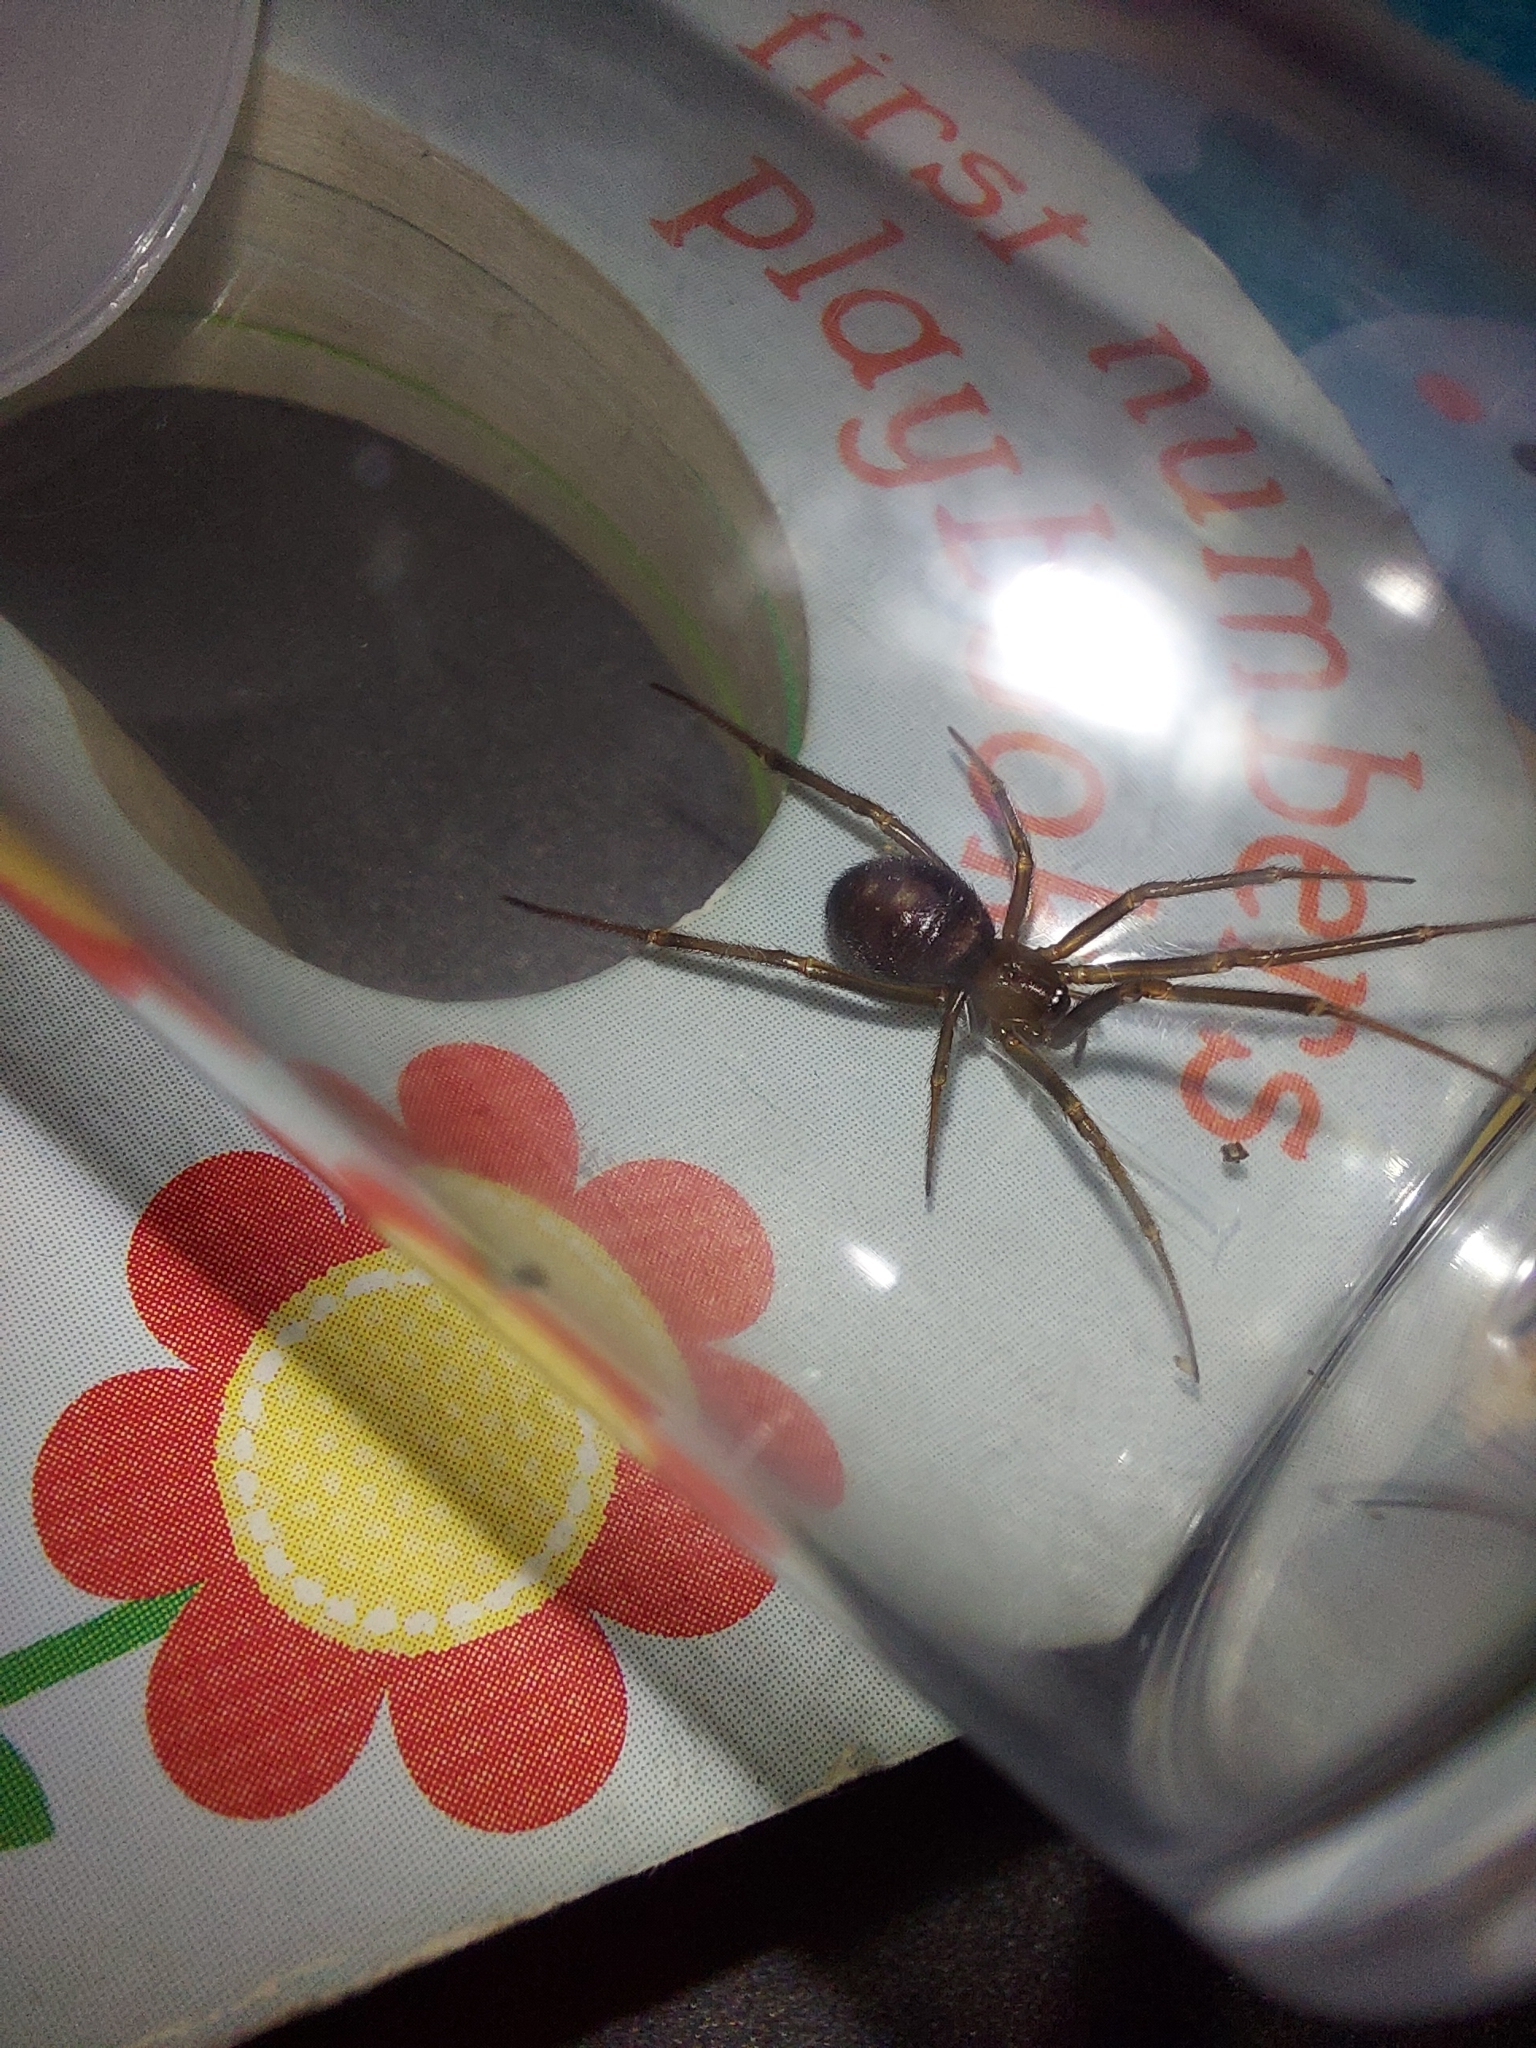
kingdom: Animalia
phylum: Arthropoda
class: Arachnida
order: Araneae
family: Theridiidae
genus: Steatoda
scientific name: Steatoda grossa
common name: False black widow
